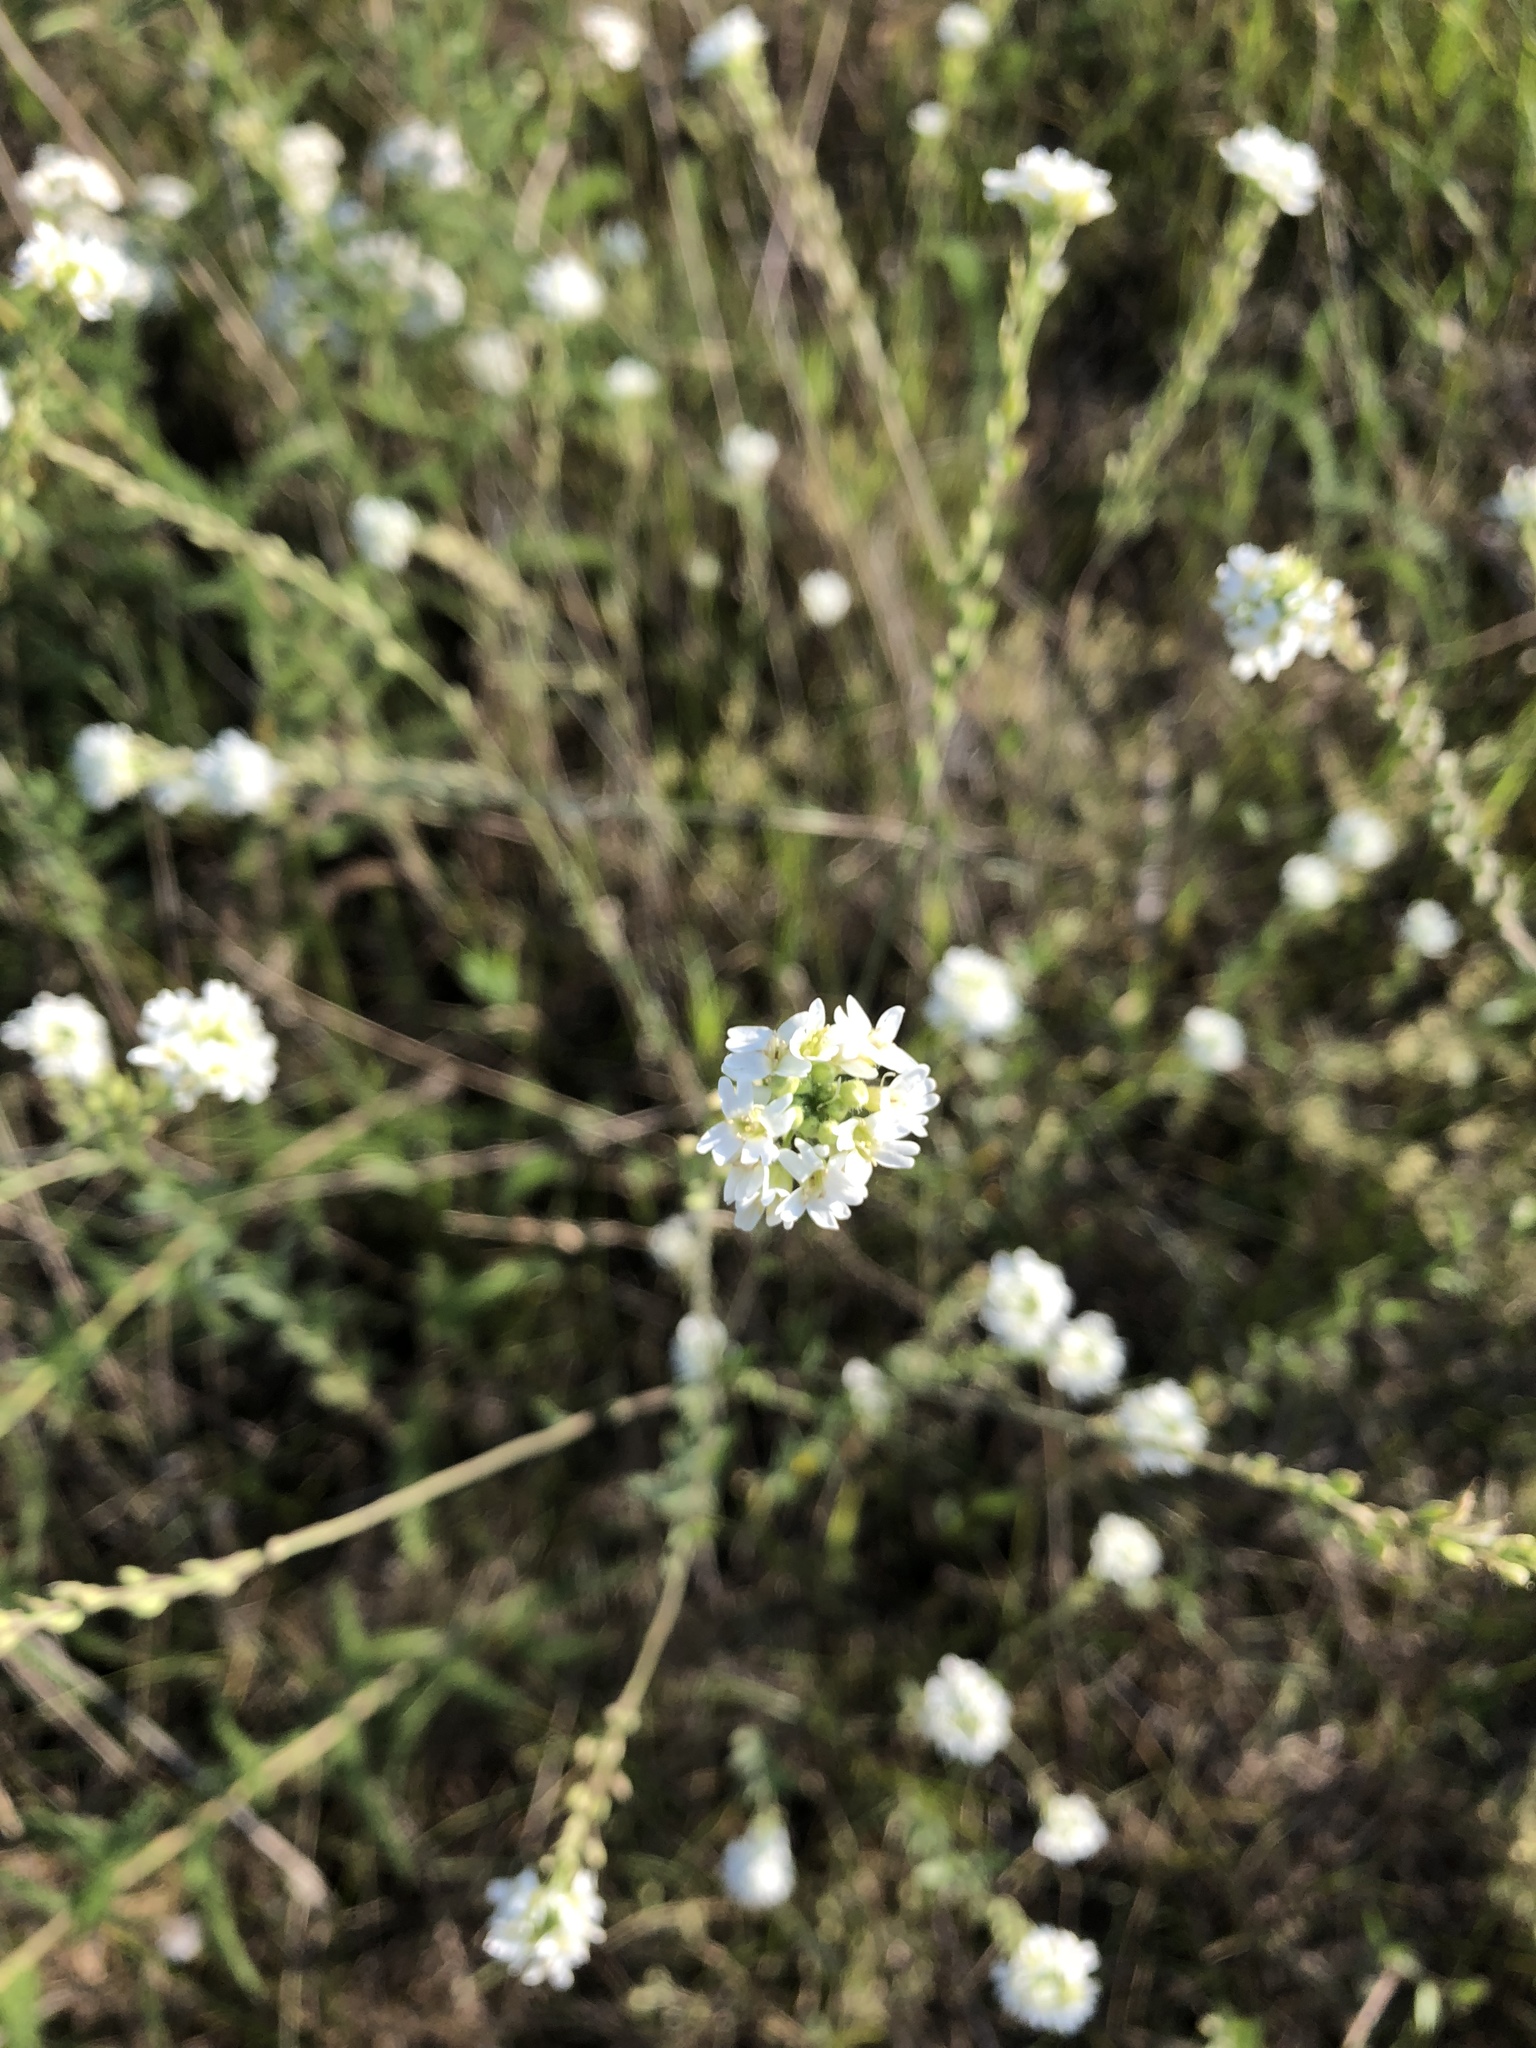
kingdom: Plantae
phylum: Tracheophyta
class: Magnoliopsida
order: Brassicales
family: Brassicaceae
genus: Berteroa
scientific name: Berteroa incana
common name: Hoary alison
